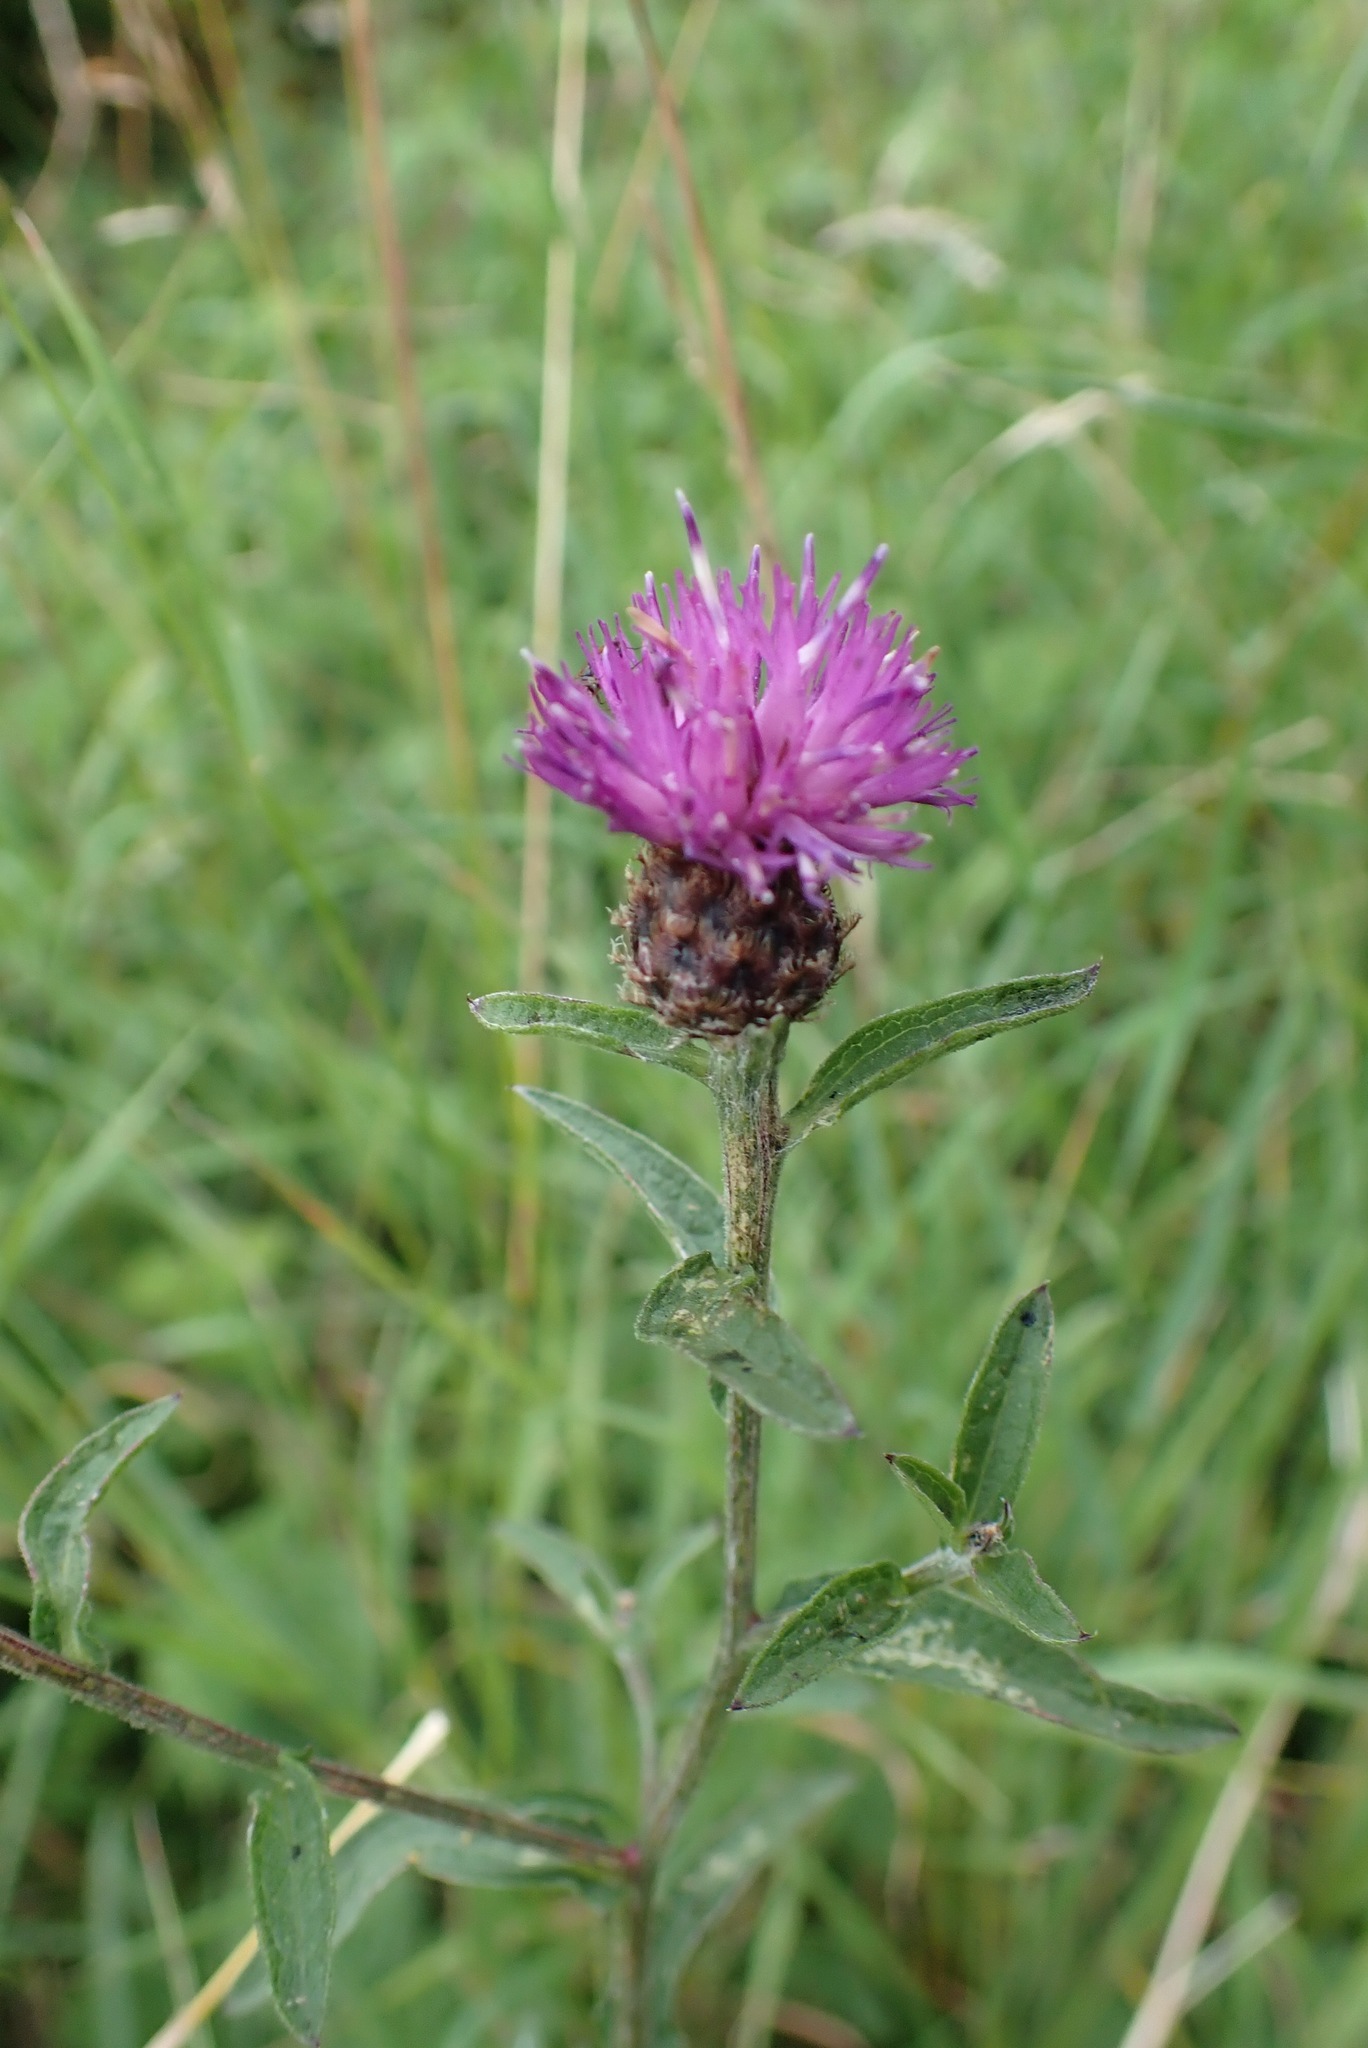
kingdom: Plantae
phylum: Tracheophyta
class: Magnoliopsida
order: Asterales
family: Asteraceae
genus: Centaurea
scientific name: Centaurea nigra
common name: Lesser knapweed
